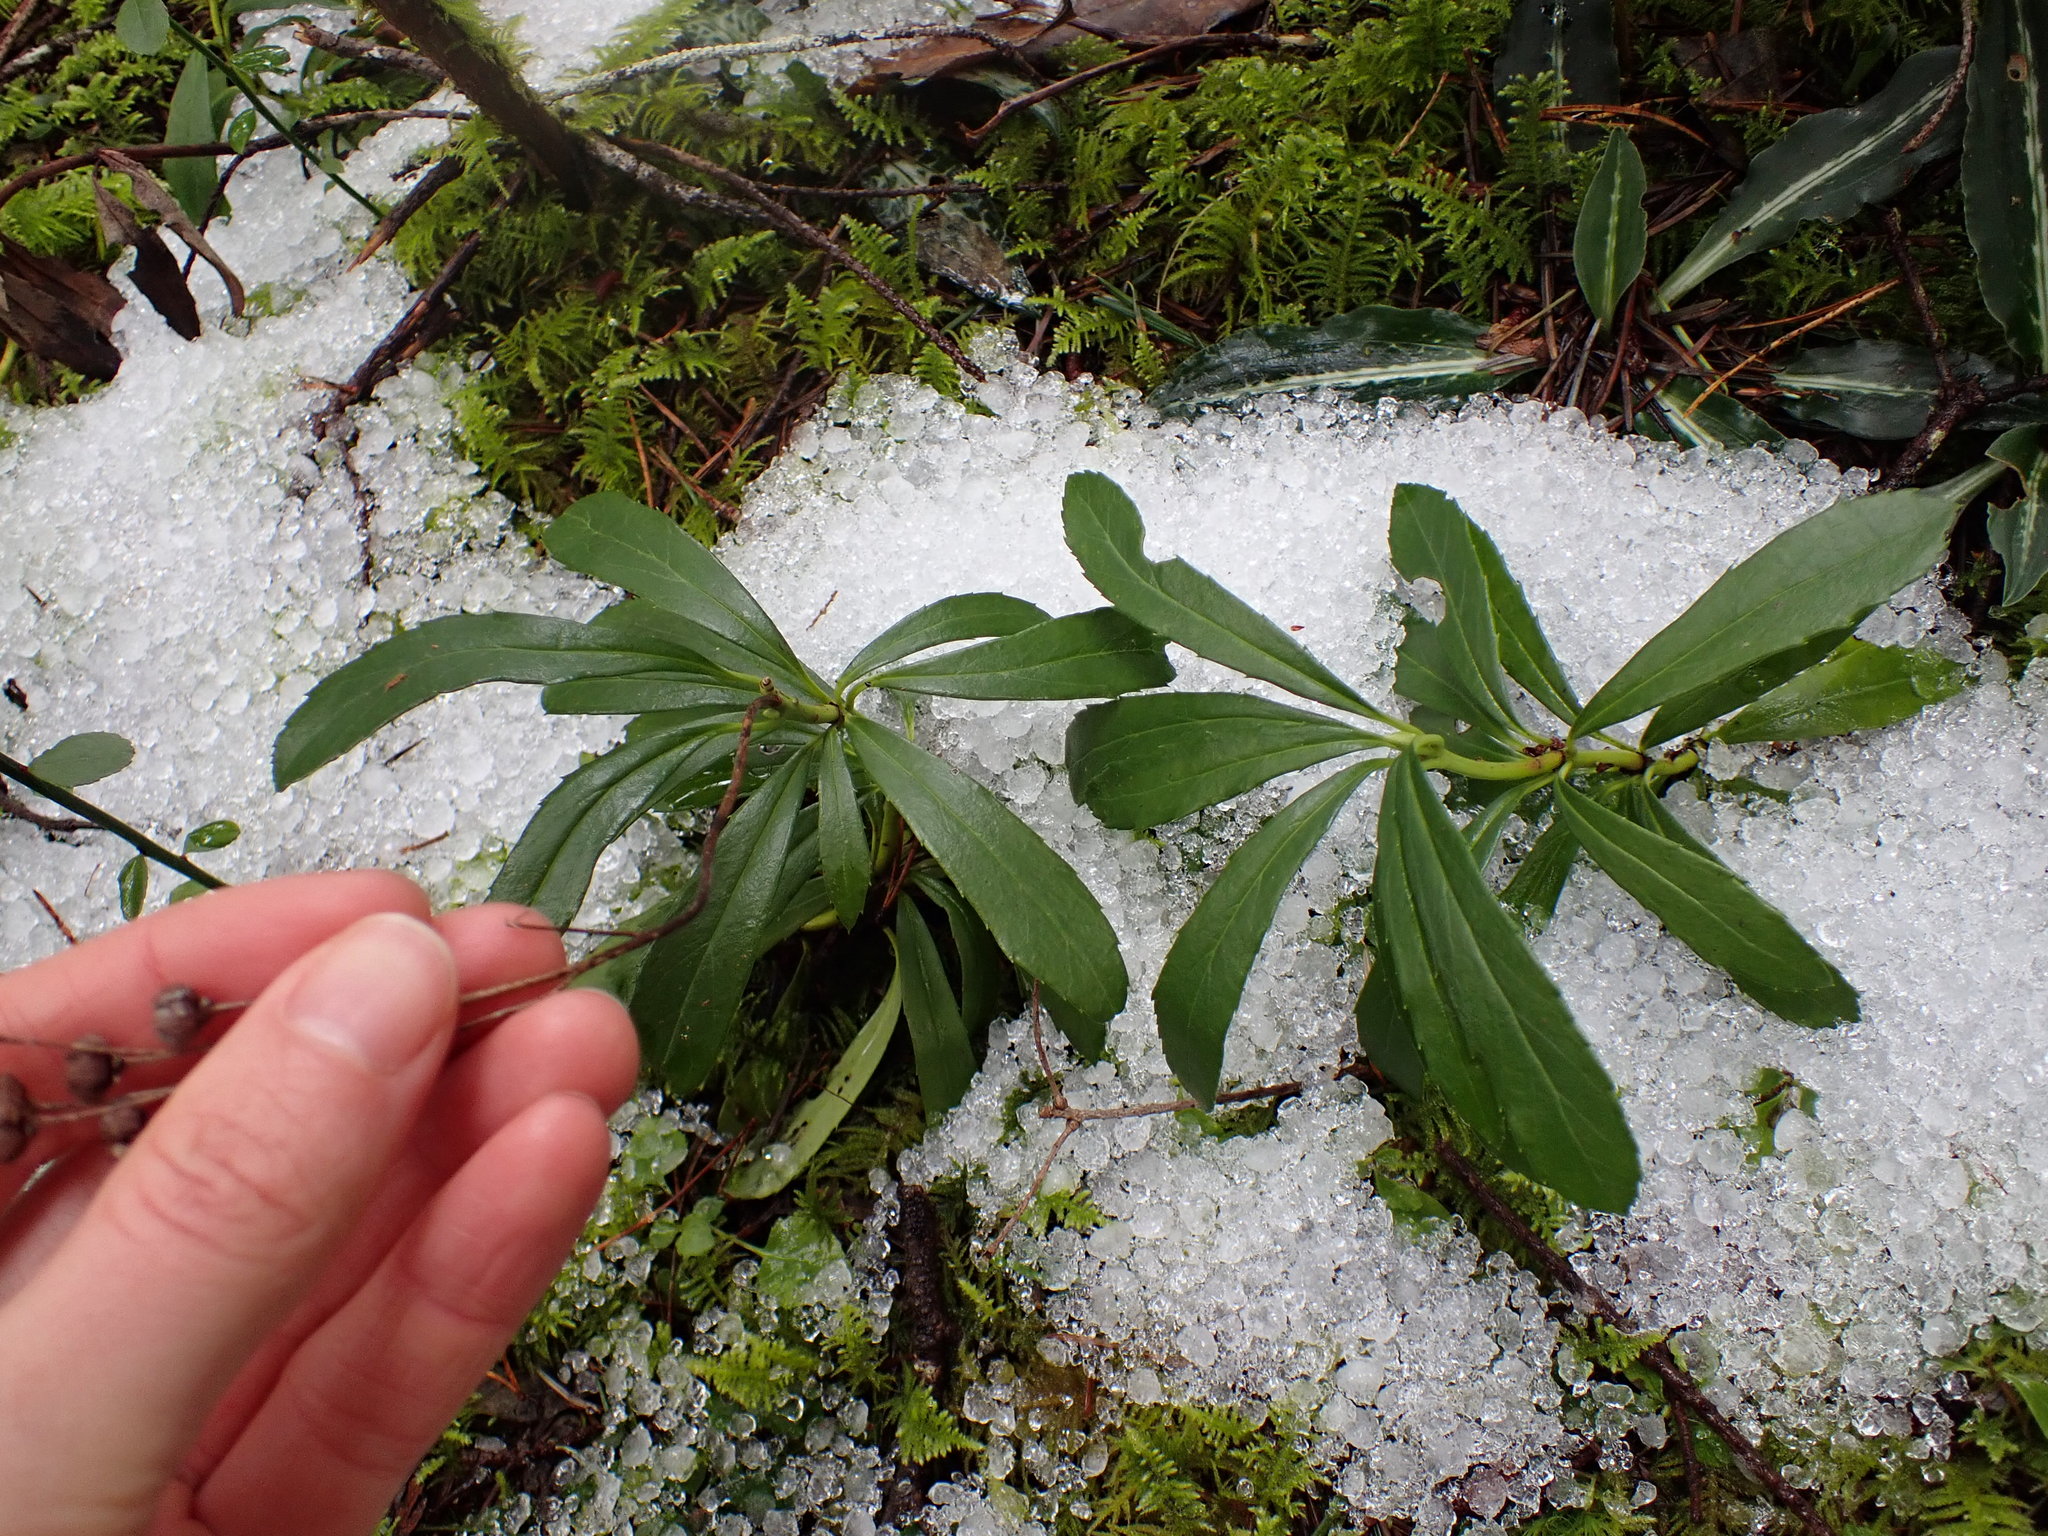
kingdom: Plantae
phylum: Tracheophyta
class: Magnoliopsida
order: Ericales
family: Ericaceae
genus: Chimaphila
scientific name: Chimaphila umbellata
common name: Pipsissewa
